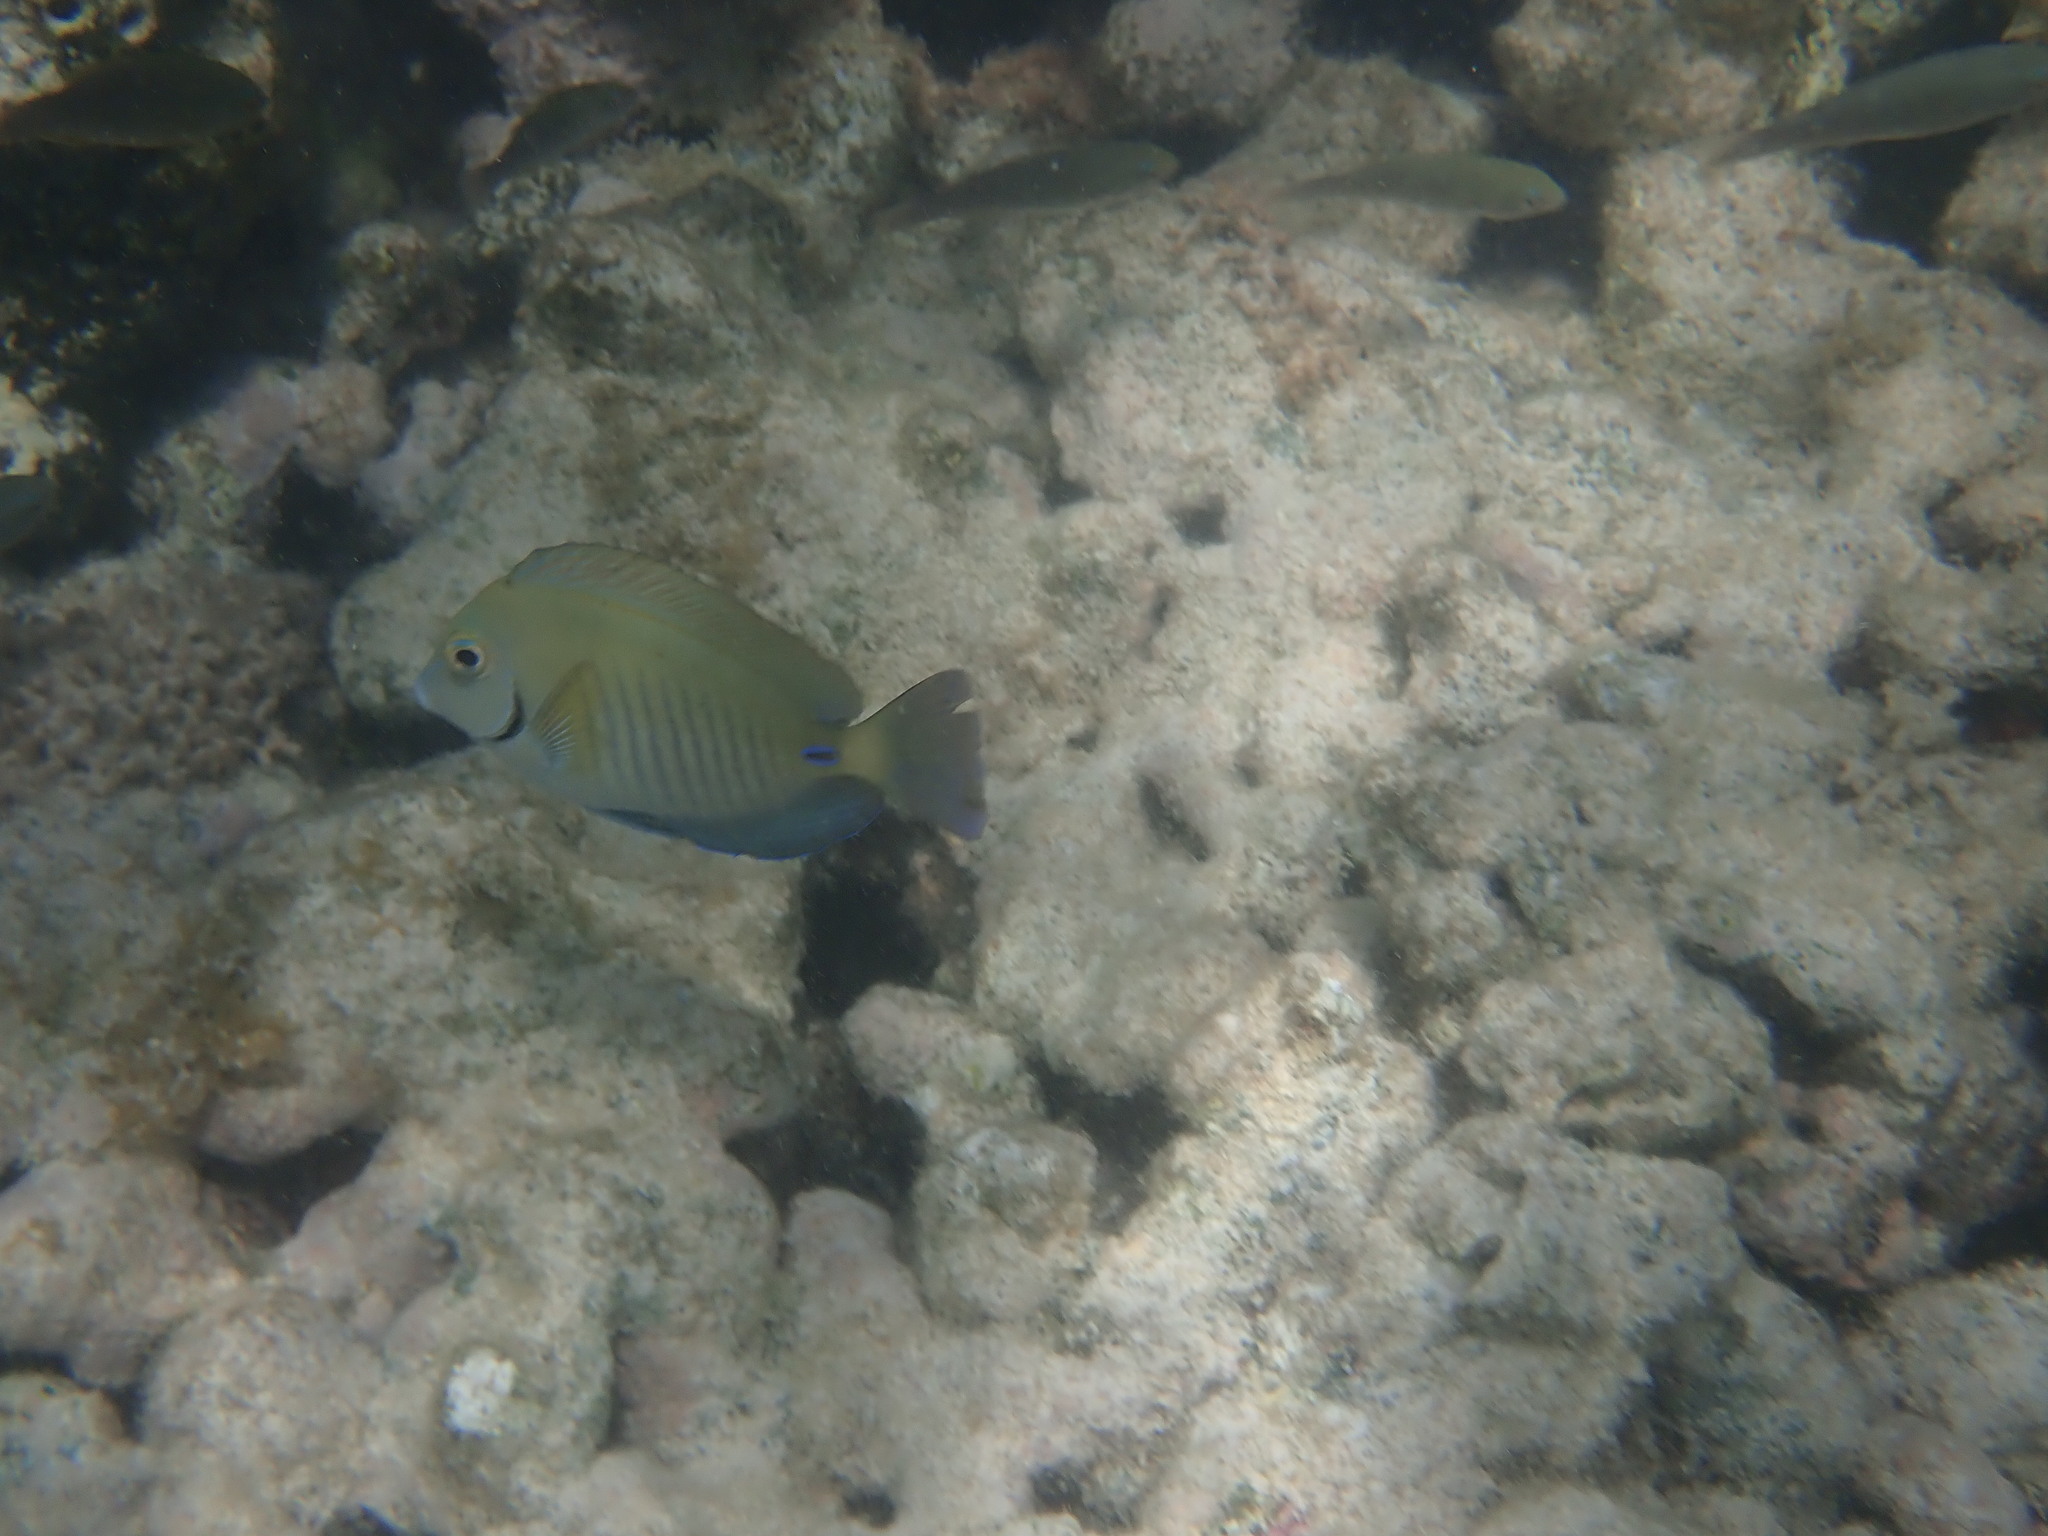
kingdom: Animalia
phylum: Chordata
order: Perciformes
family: Acanthuridae
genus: Acanthurus
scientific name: Acanthurus chirurgus
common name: Doctorfish
